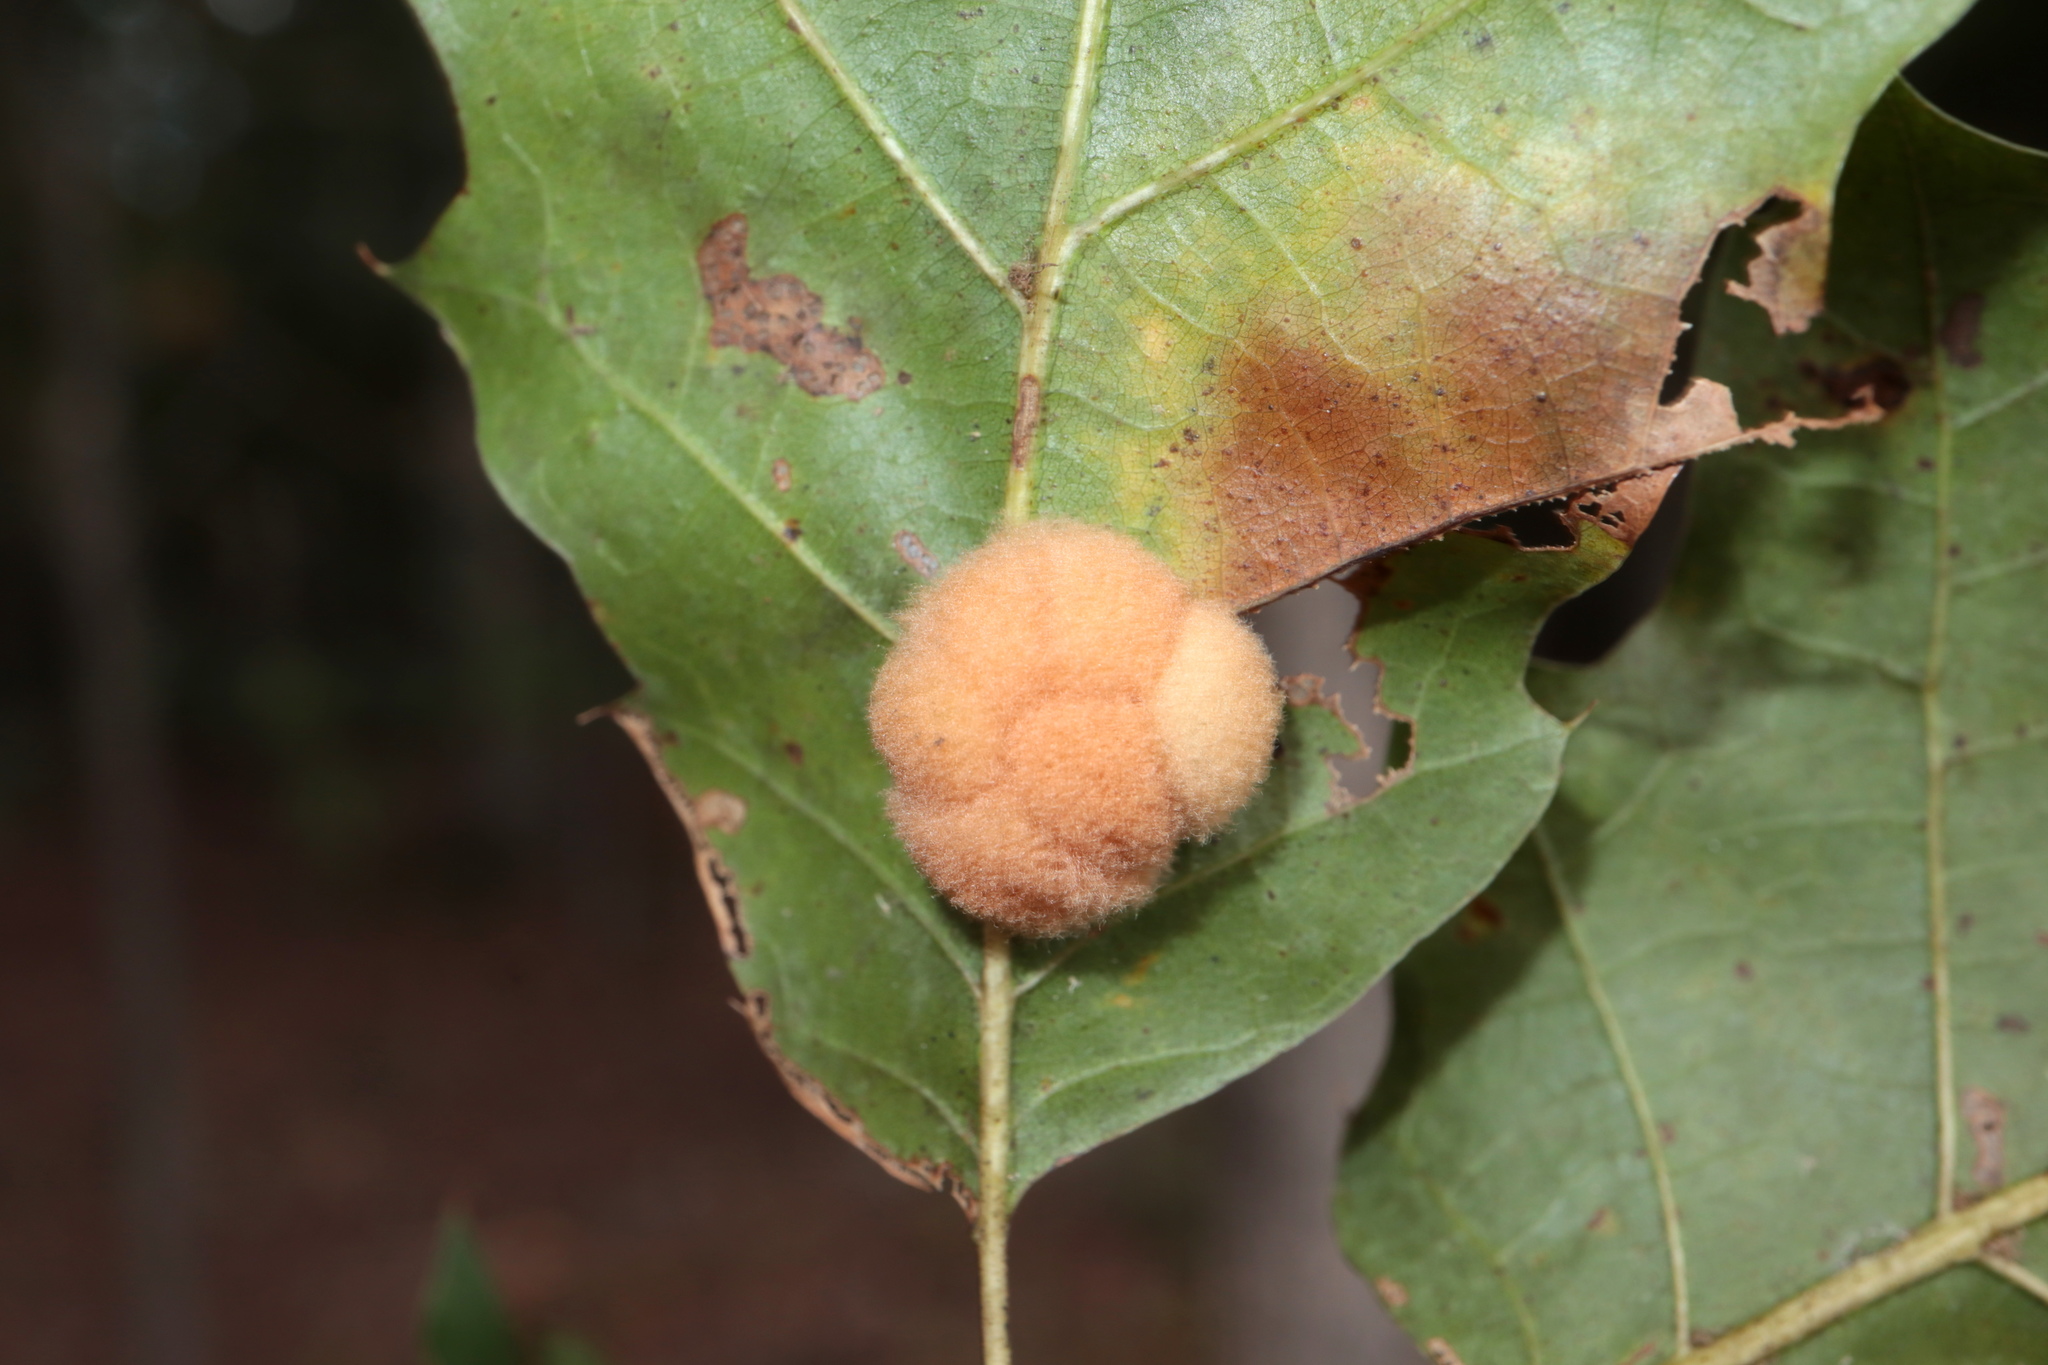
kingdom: Animalia
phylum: Arthropoda
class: Insecta
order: Hymenoptera
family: Cynipidae
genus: Callirhytis
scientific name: Callirhytis
